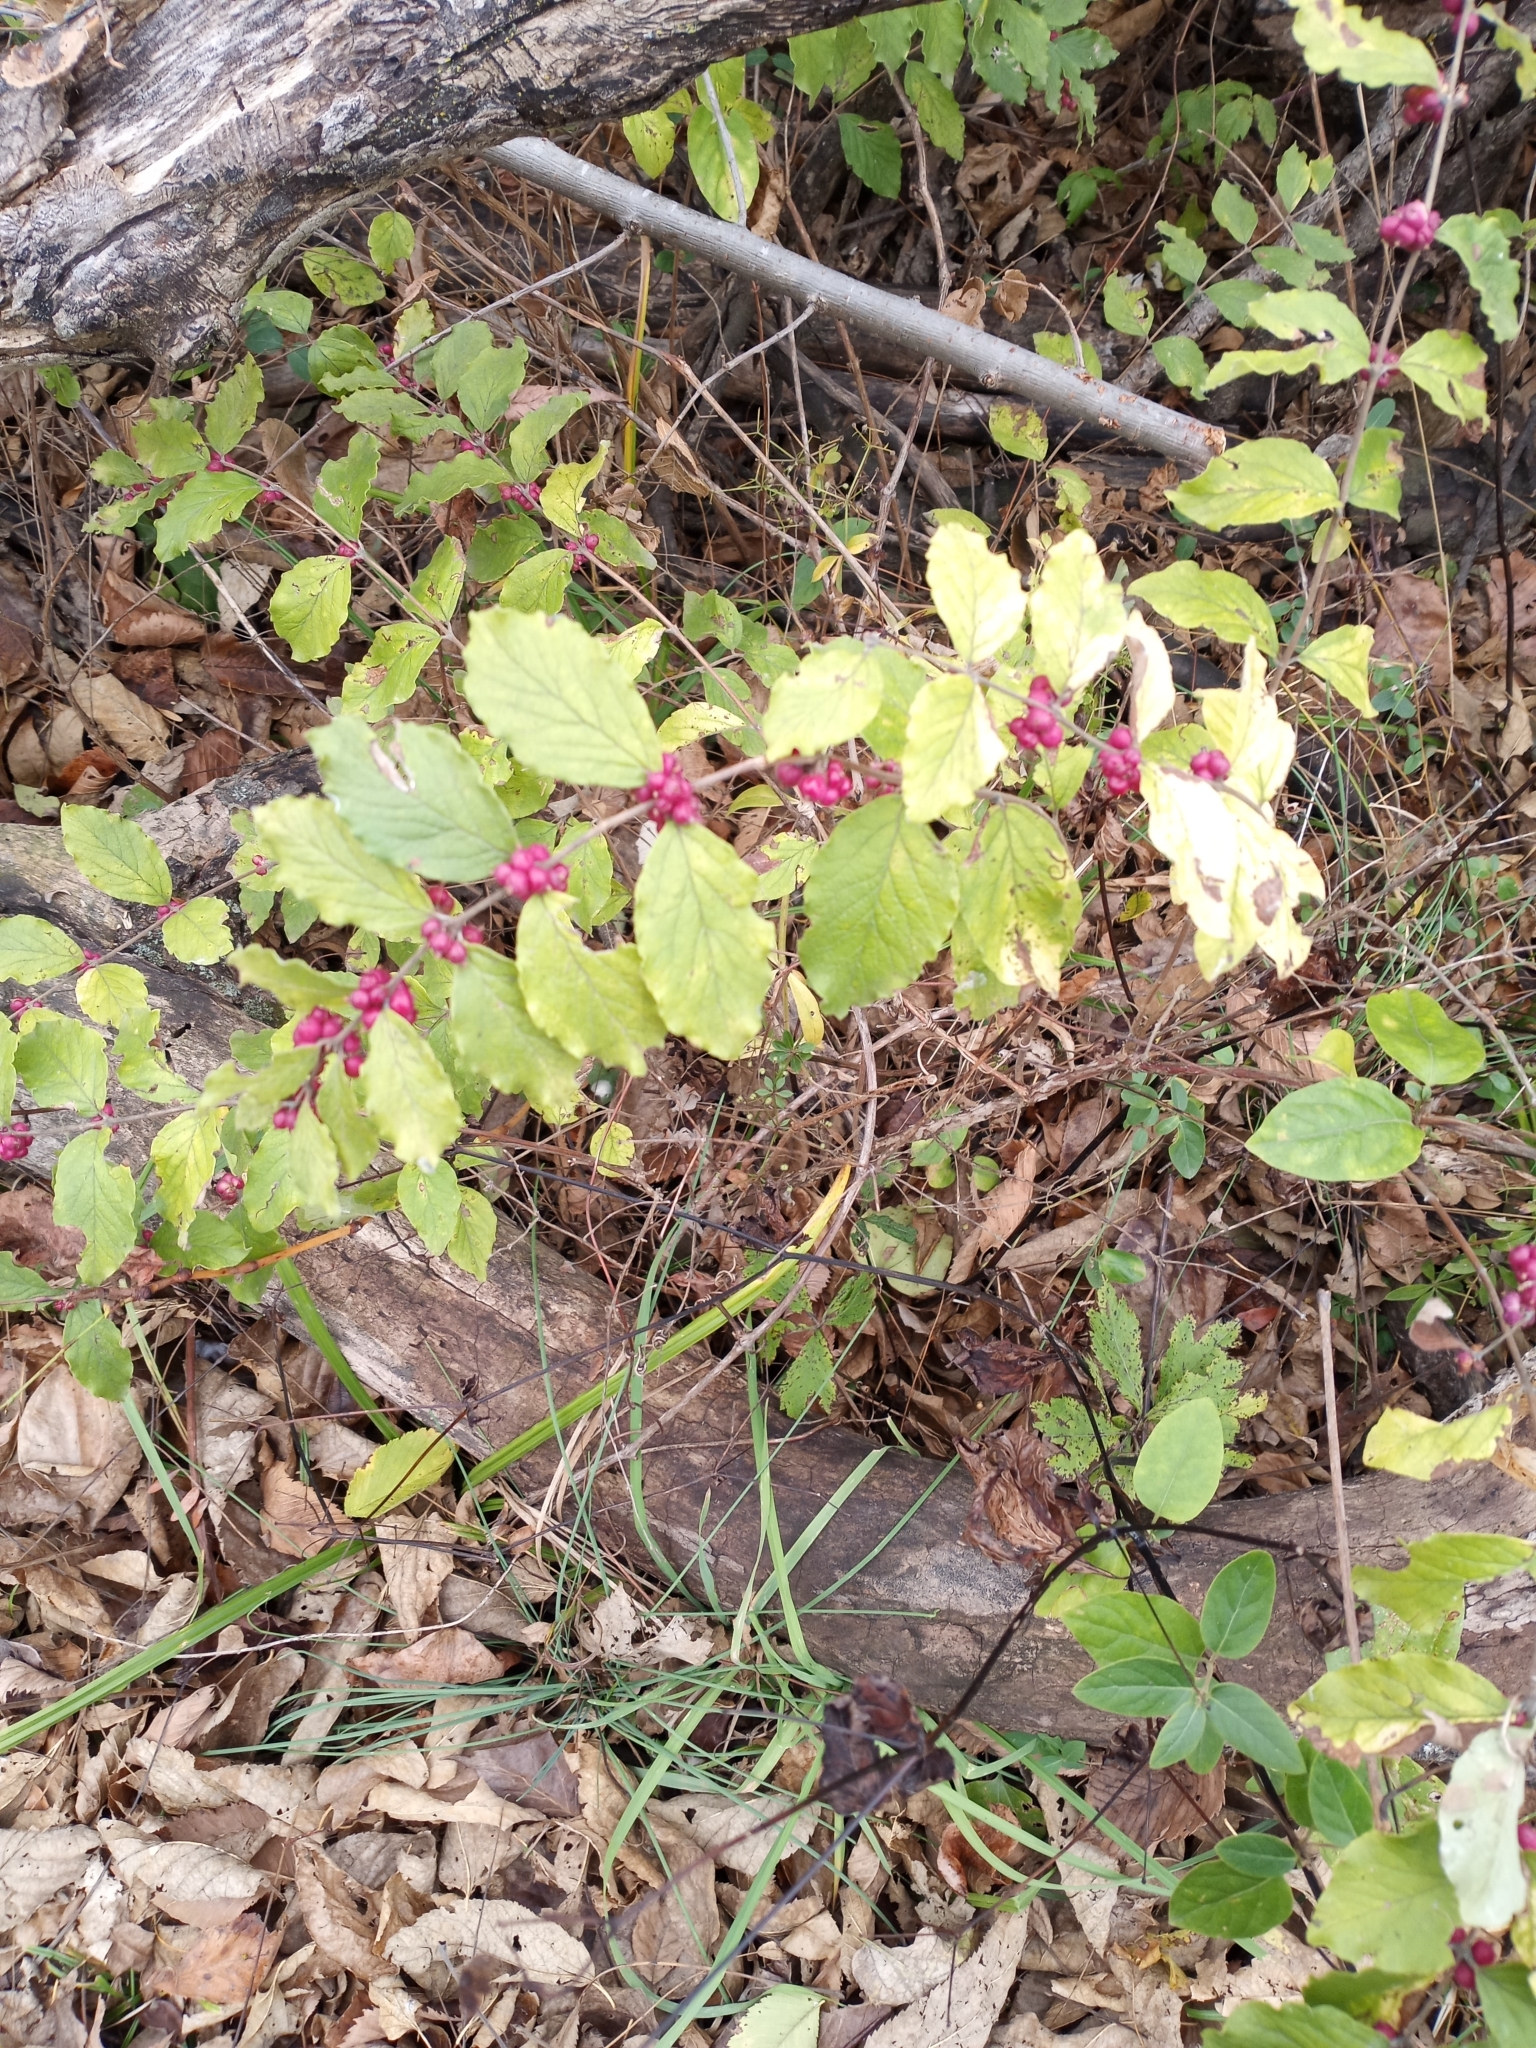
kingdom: Plantae
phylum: Tracheophyta
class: Magnoliopsida
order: Dipsacales
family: Caprifoliaceae
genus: Symphoricarpos
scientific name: Symphoricarpos orbiculatus
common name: Coralberry
